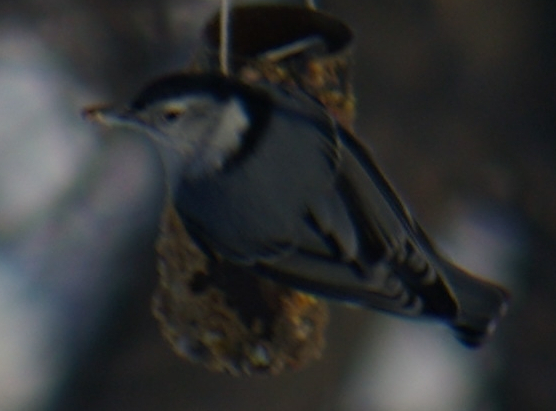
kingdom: Animalia
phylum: Chordata
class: Aves
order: Passeriformes
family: Sittidae
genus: Sitta
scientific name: Sitta carolinensis
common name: White-breasted nuthatch
